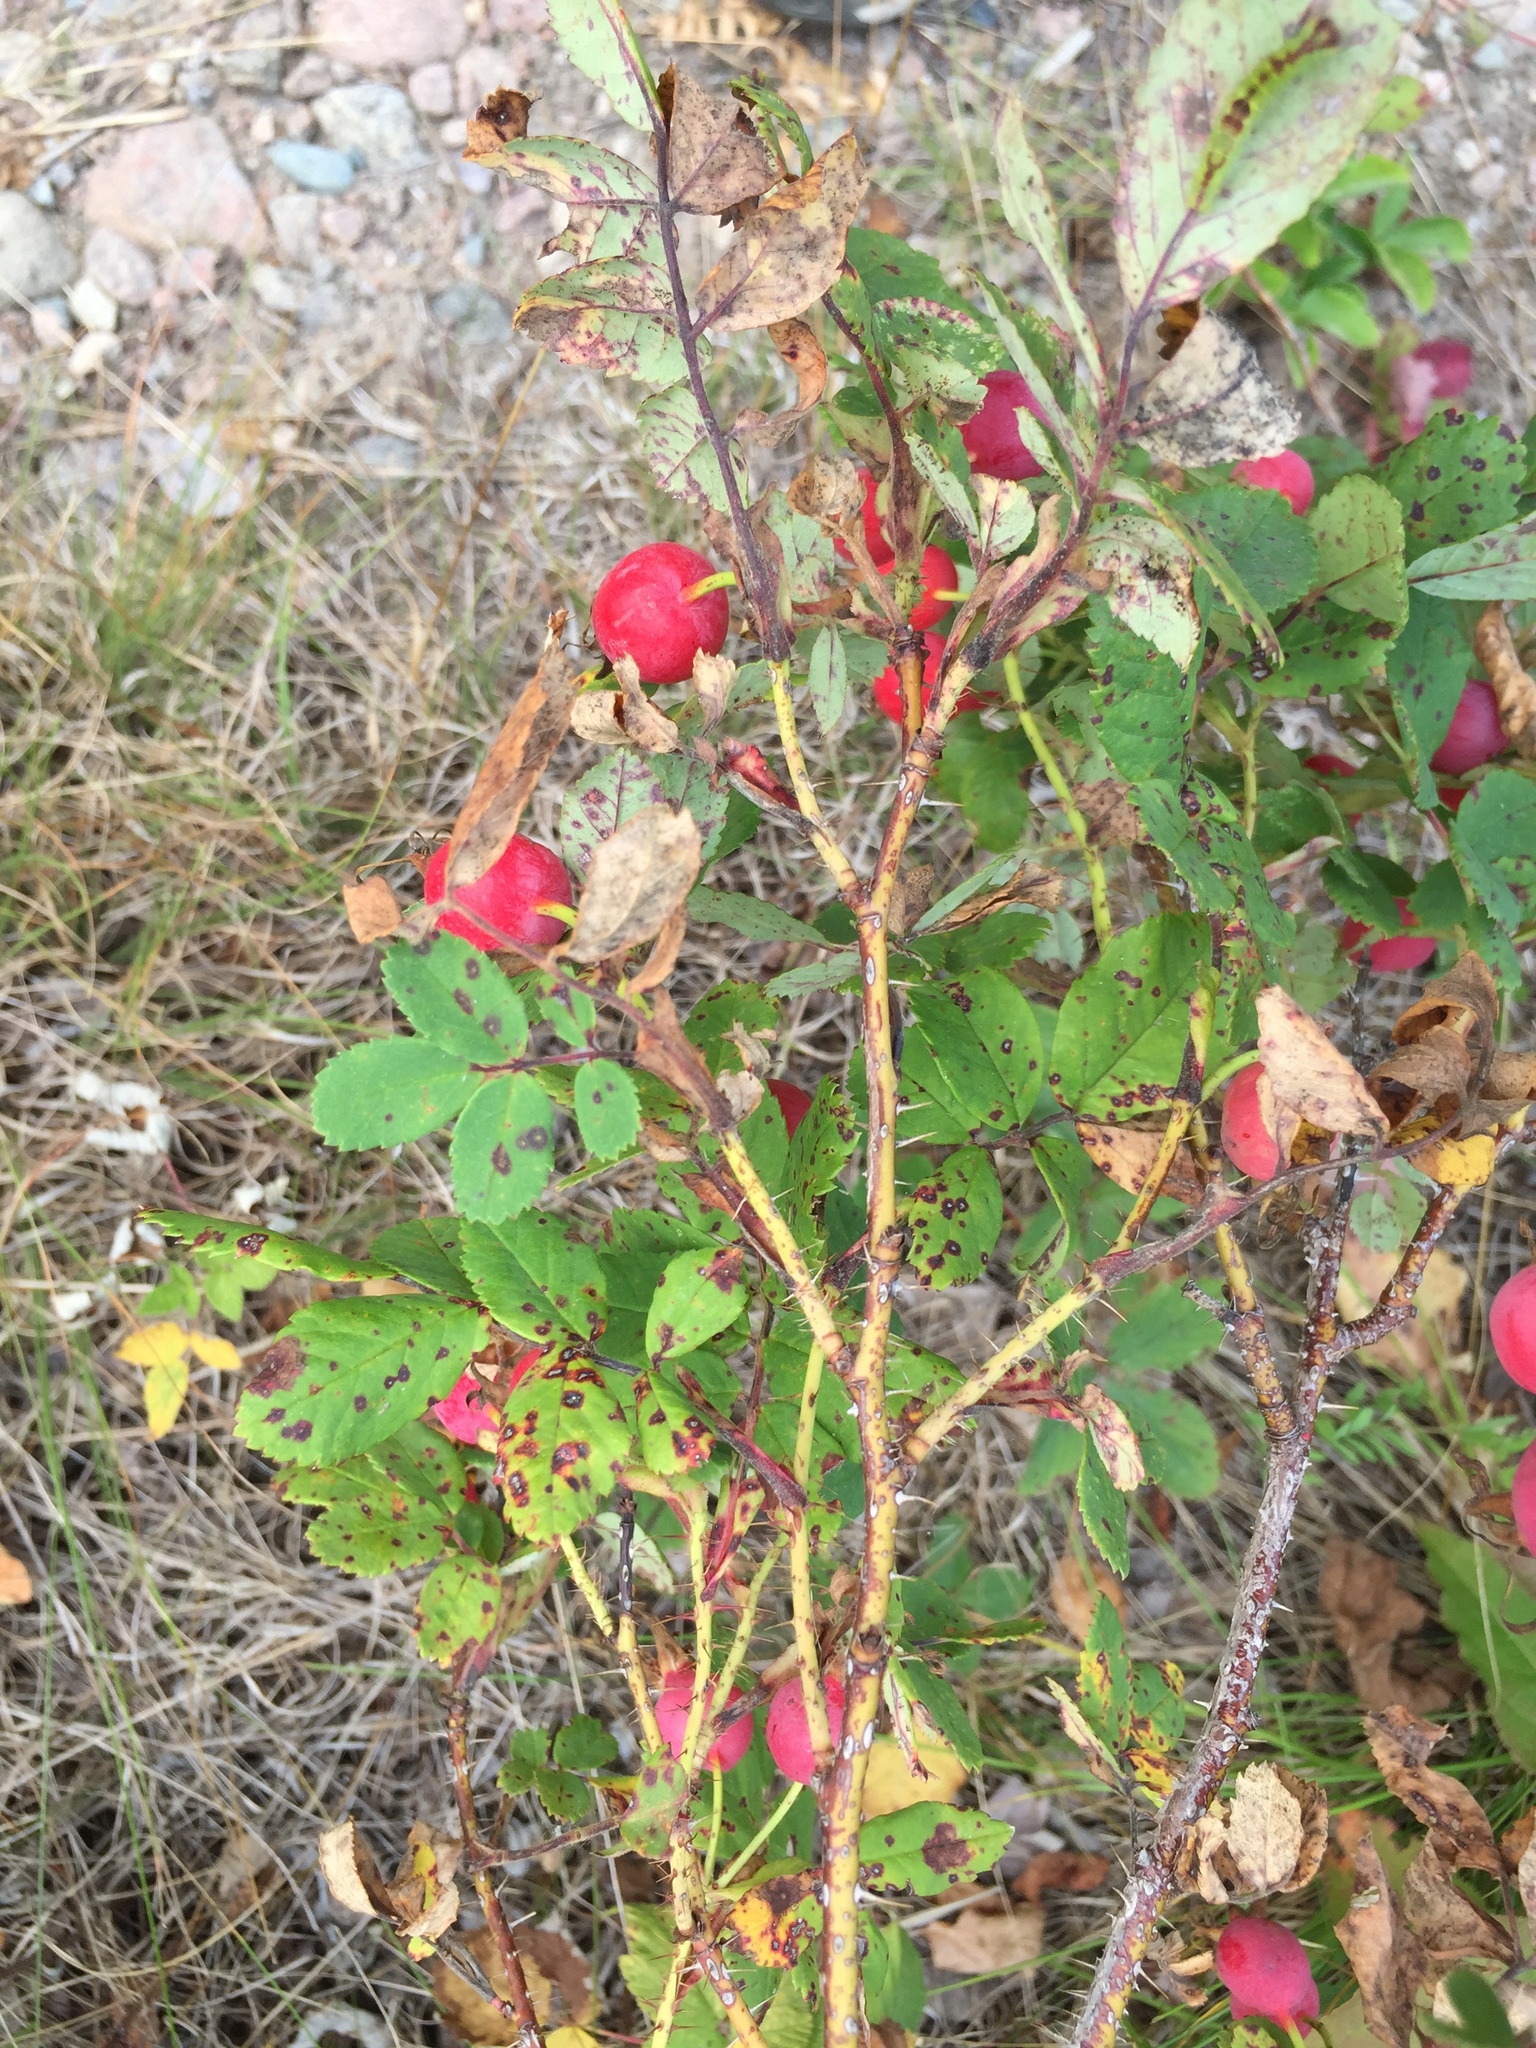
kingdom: Plantae
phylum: Tracheophyta
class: Magnoliopsida
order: Rosales
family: Rosaceae
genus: Rosa
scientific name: Rosa woodsii
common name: Woods's rose
